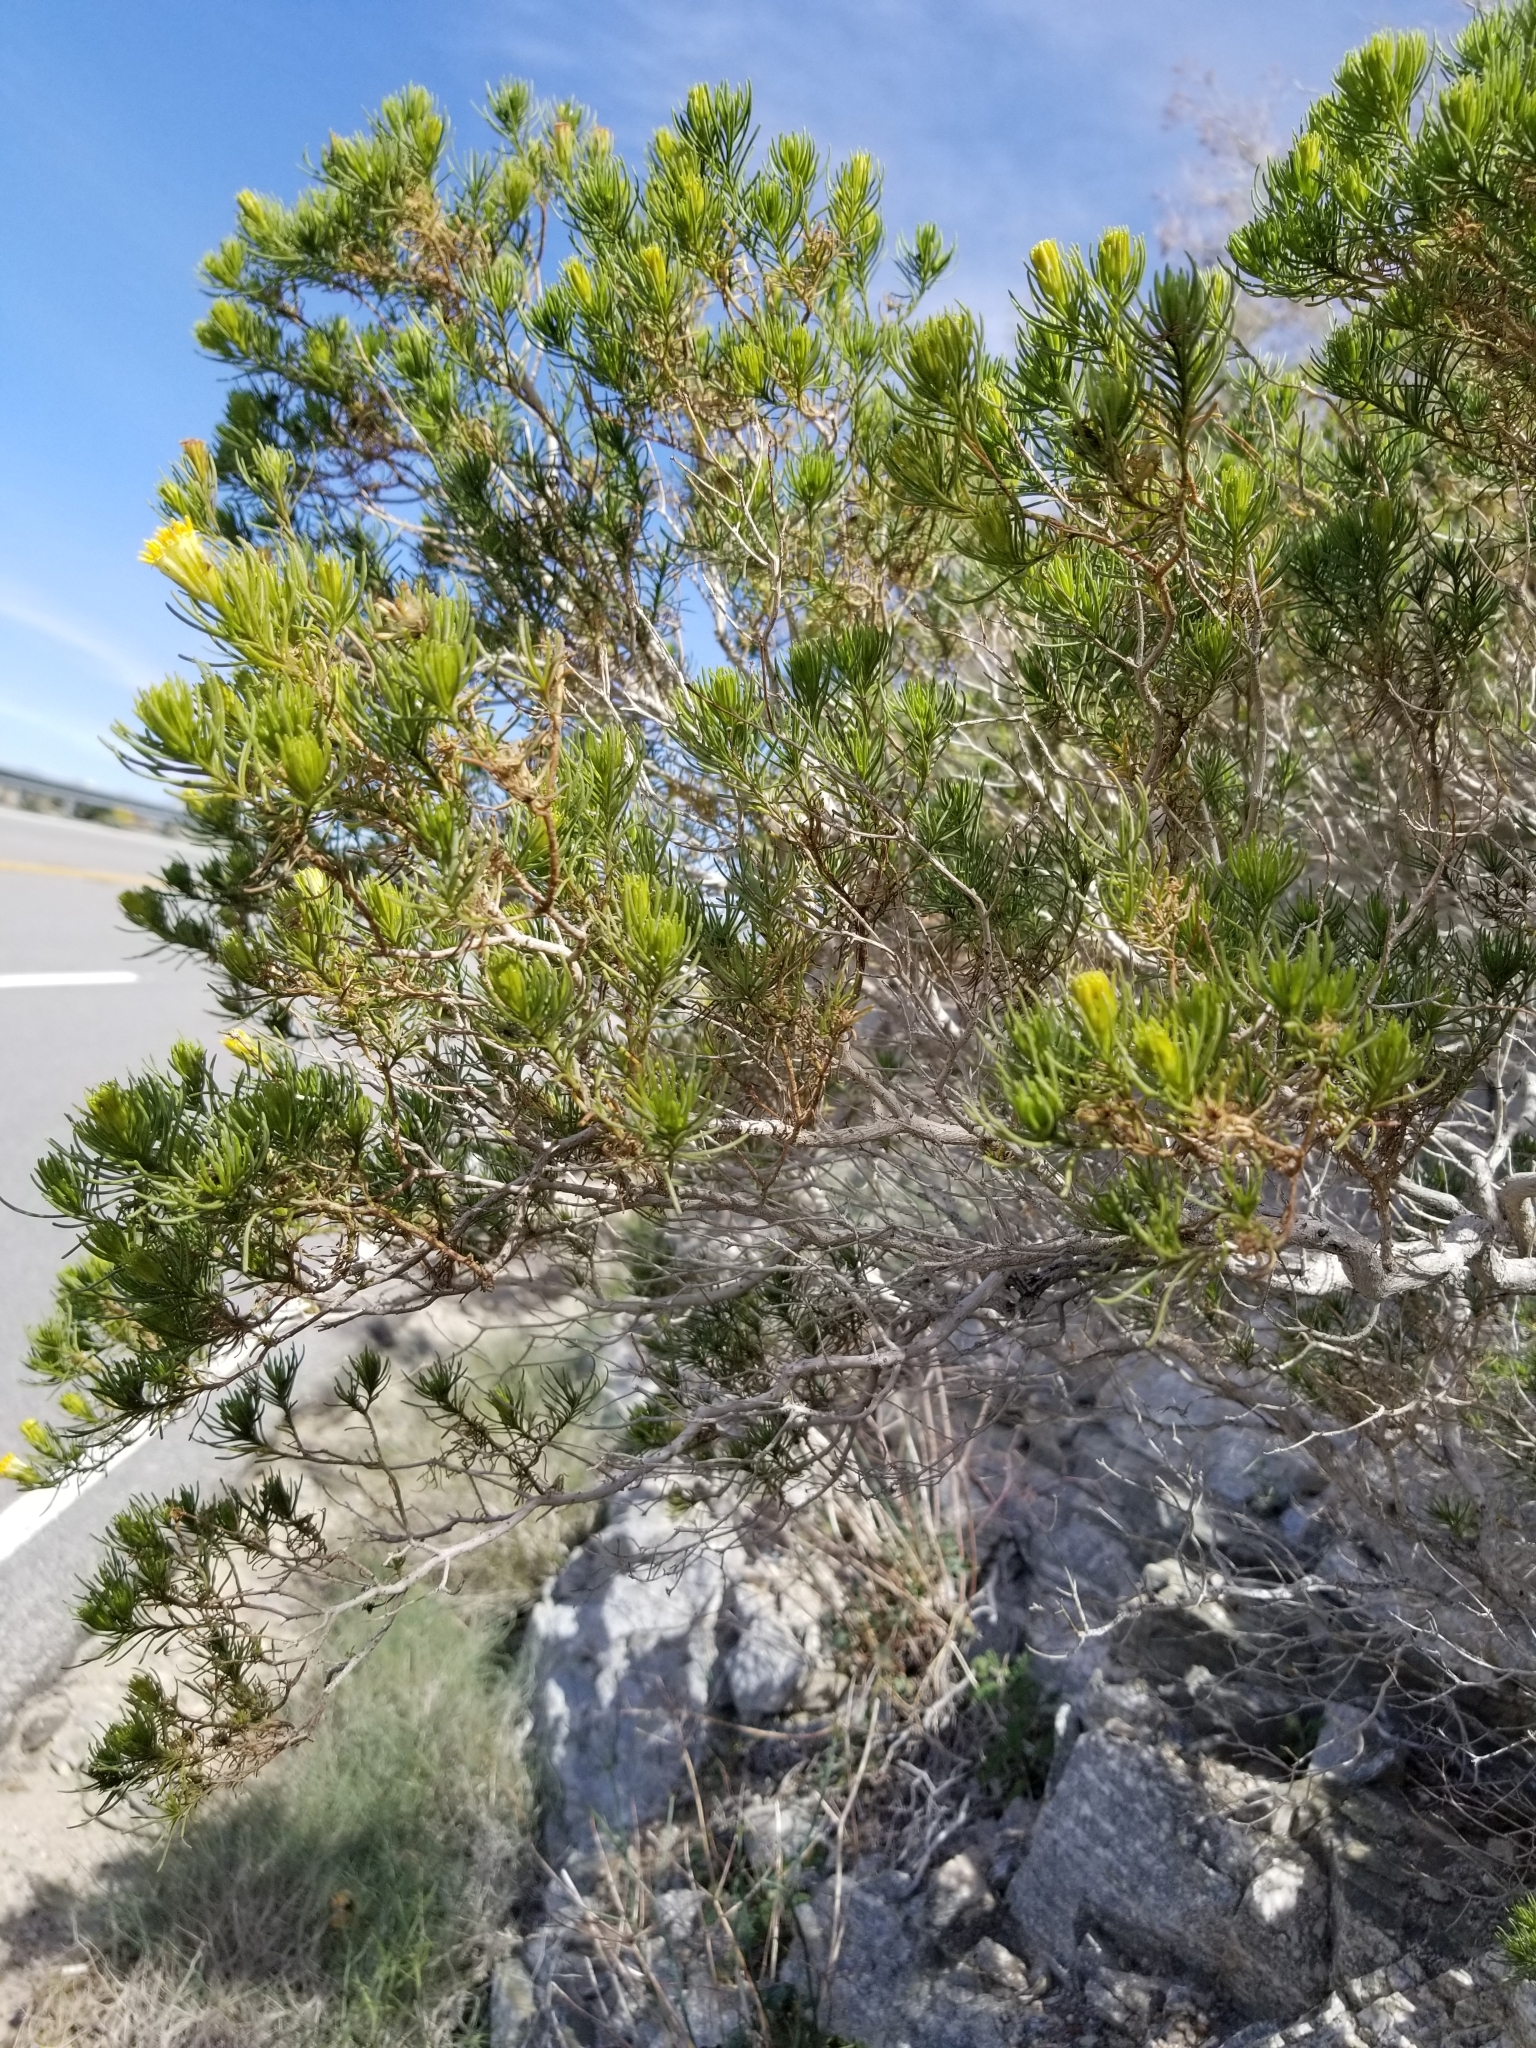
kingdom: Plantae
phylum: Tracheophyta
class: Magnoliopsida
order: Asterales
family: Asteraceae
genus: Peucephyllum
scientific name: Peucephyllum schottii
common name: Pygmy-cedar
